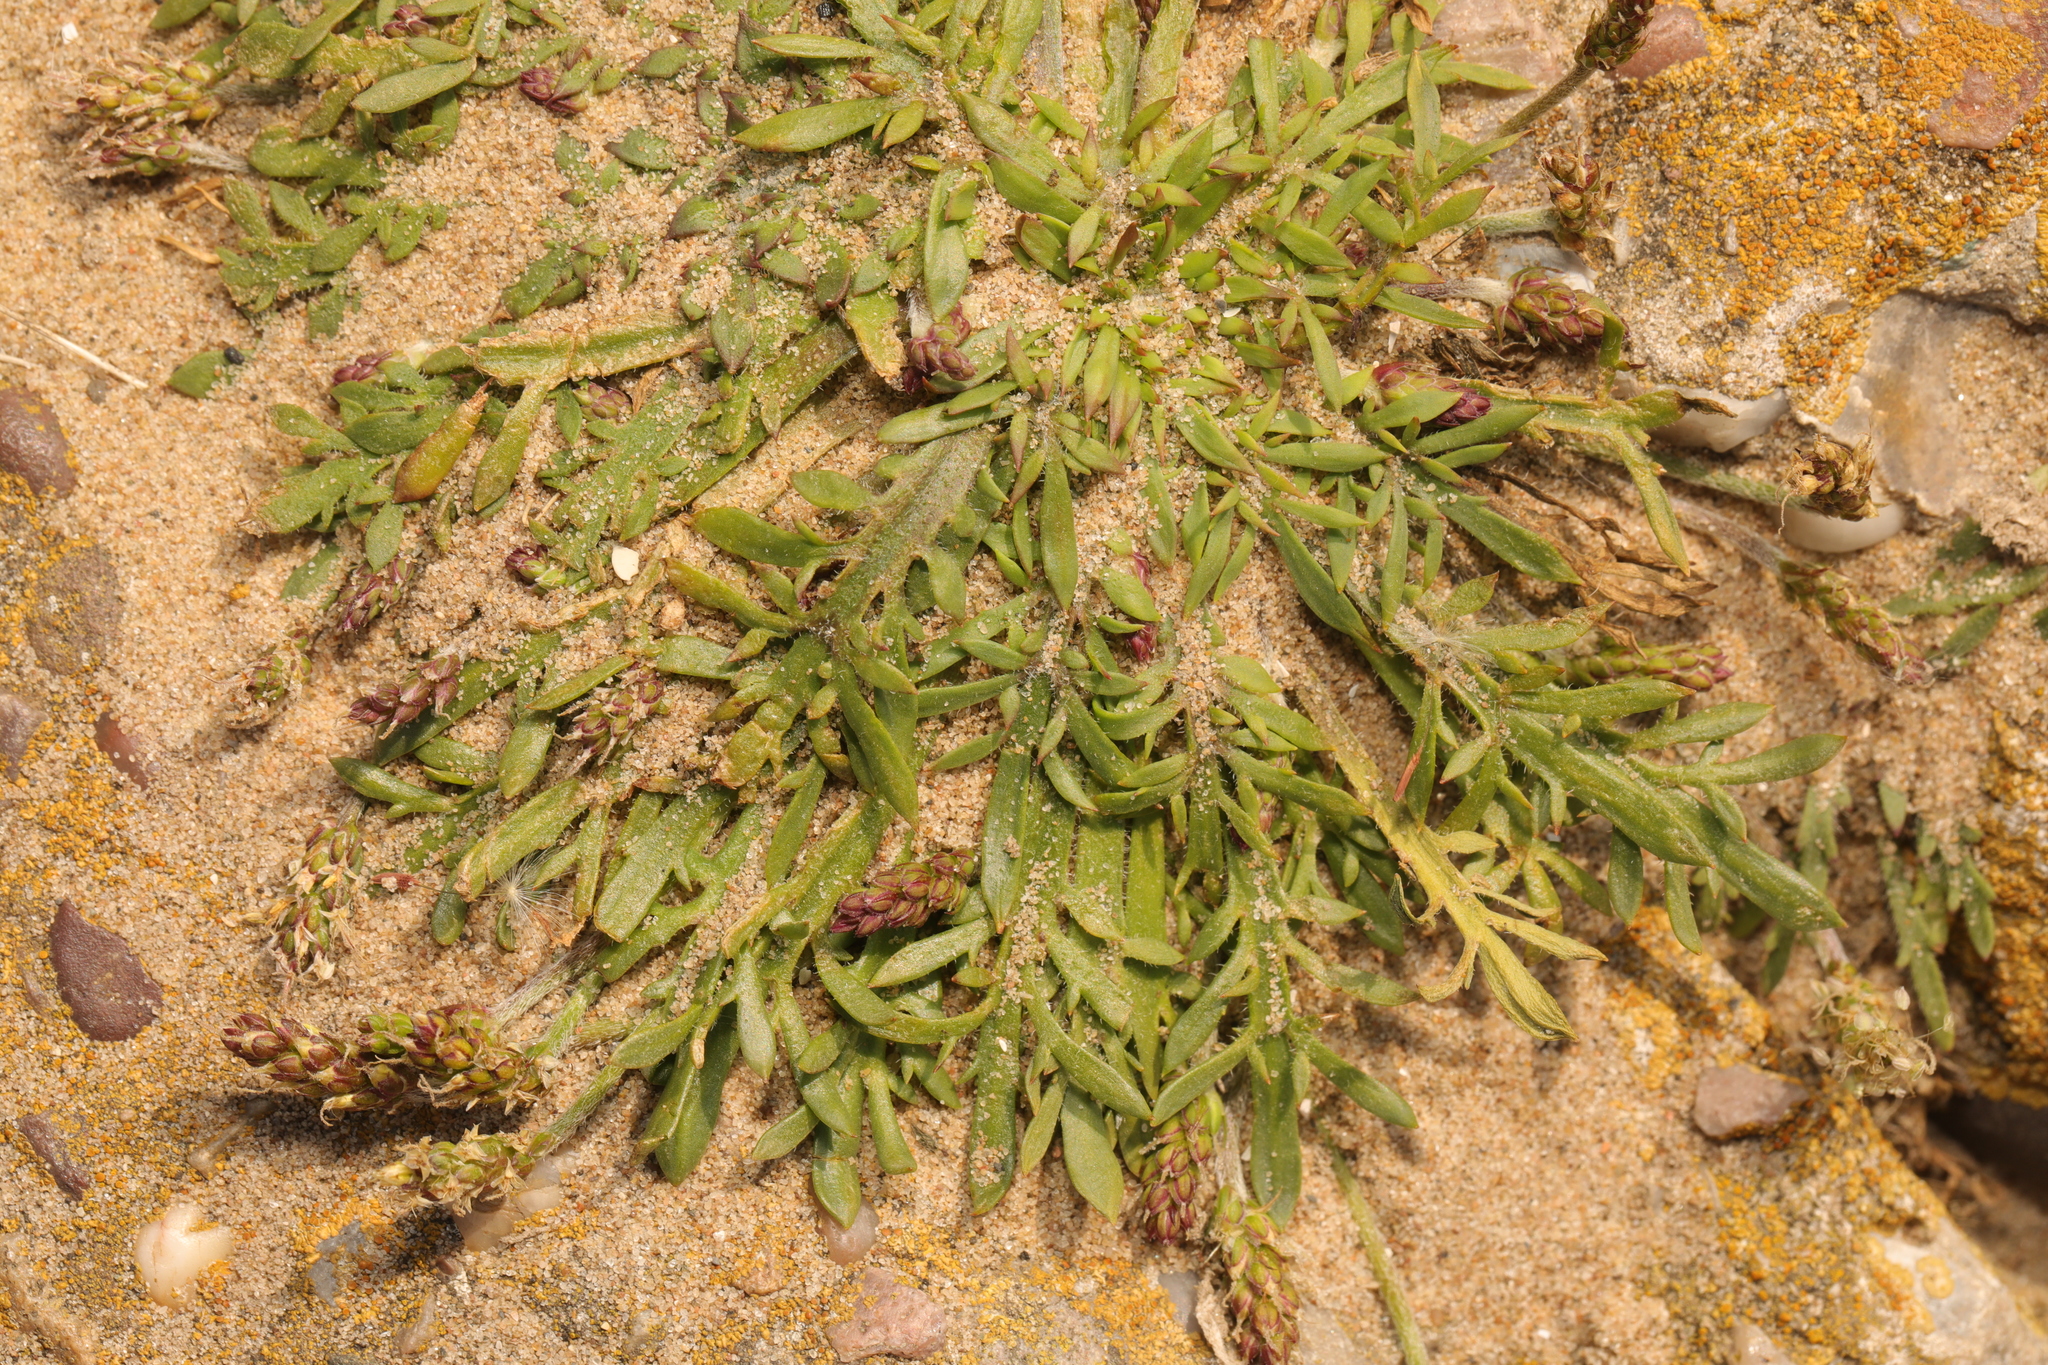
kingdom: Plantae
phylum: Tracheophyta
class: Magnoliopsida
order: Lamiales
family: Plantaginaceae
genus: Plantago
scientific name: Plantago coronopus
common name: Buck's-horn plantain
